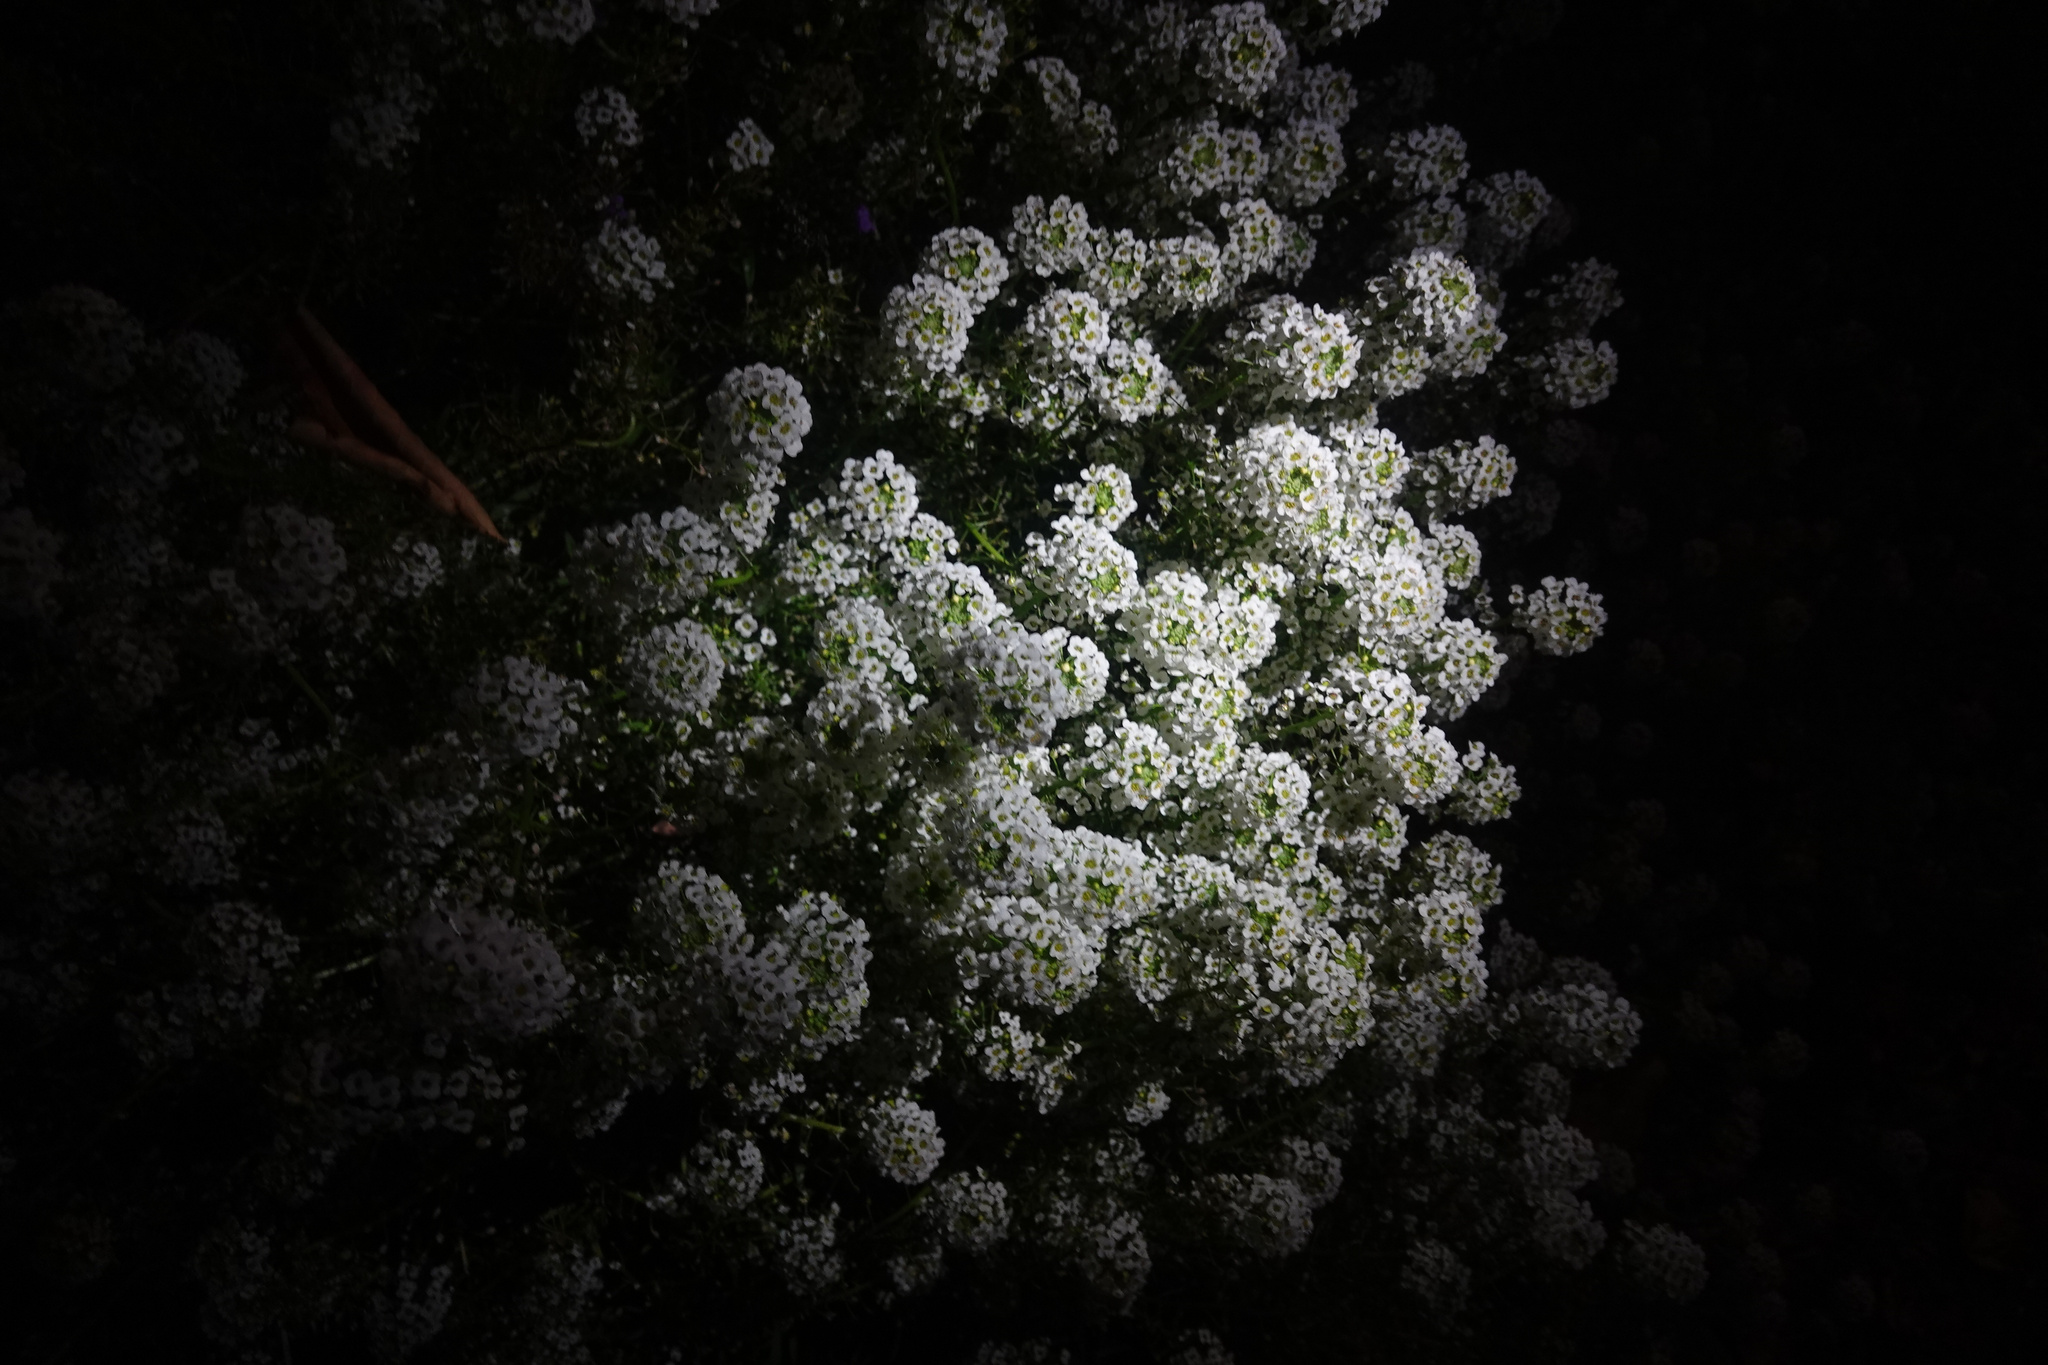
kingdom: Plantae
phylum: Tracheophyta
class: Magnoliopsida
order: Brassicales
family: Brassicaceae
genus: Lobularia
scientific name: Lobularia maritima
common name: Sweet alison
